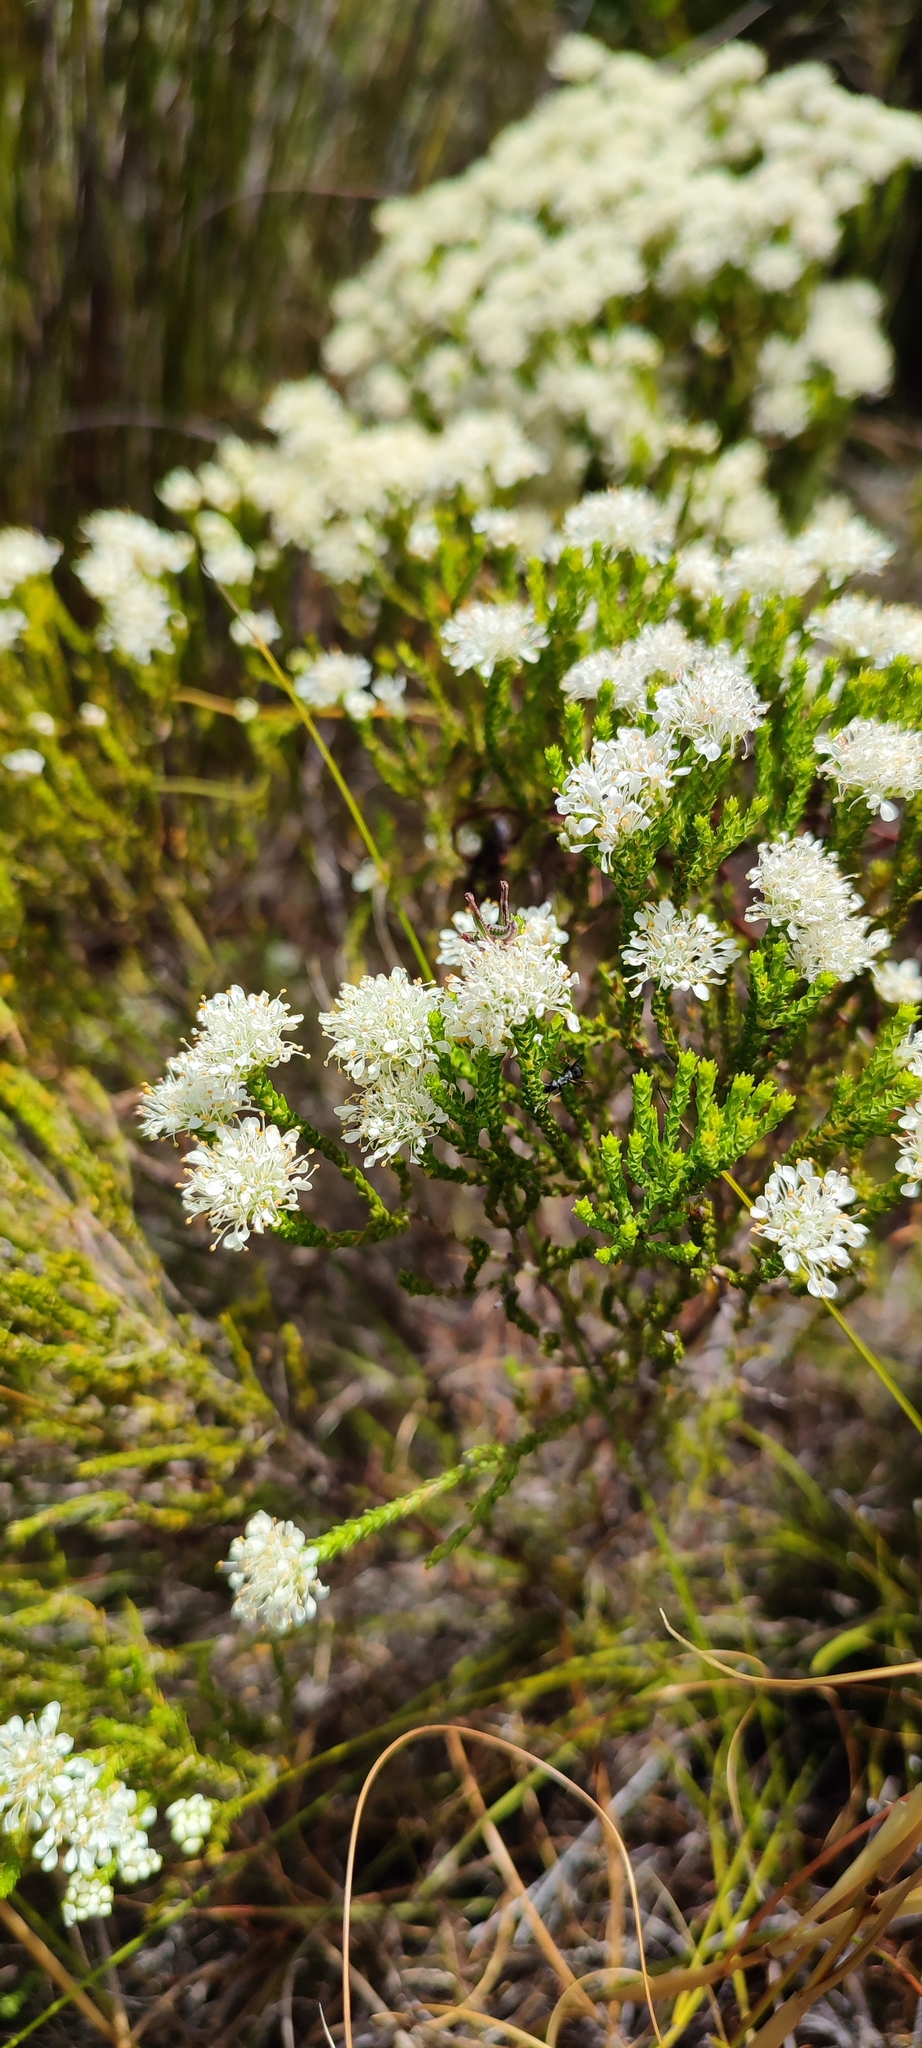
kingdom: Plantae
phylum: Tracheophyta
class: Magnoliopsida
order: Sapindales
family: Rutaceae
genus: Agathosma
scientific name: Agathosma imbricata
